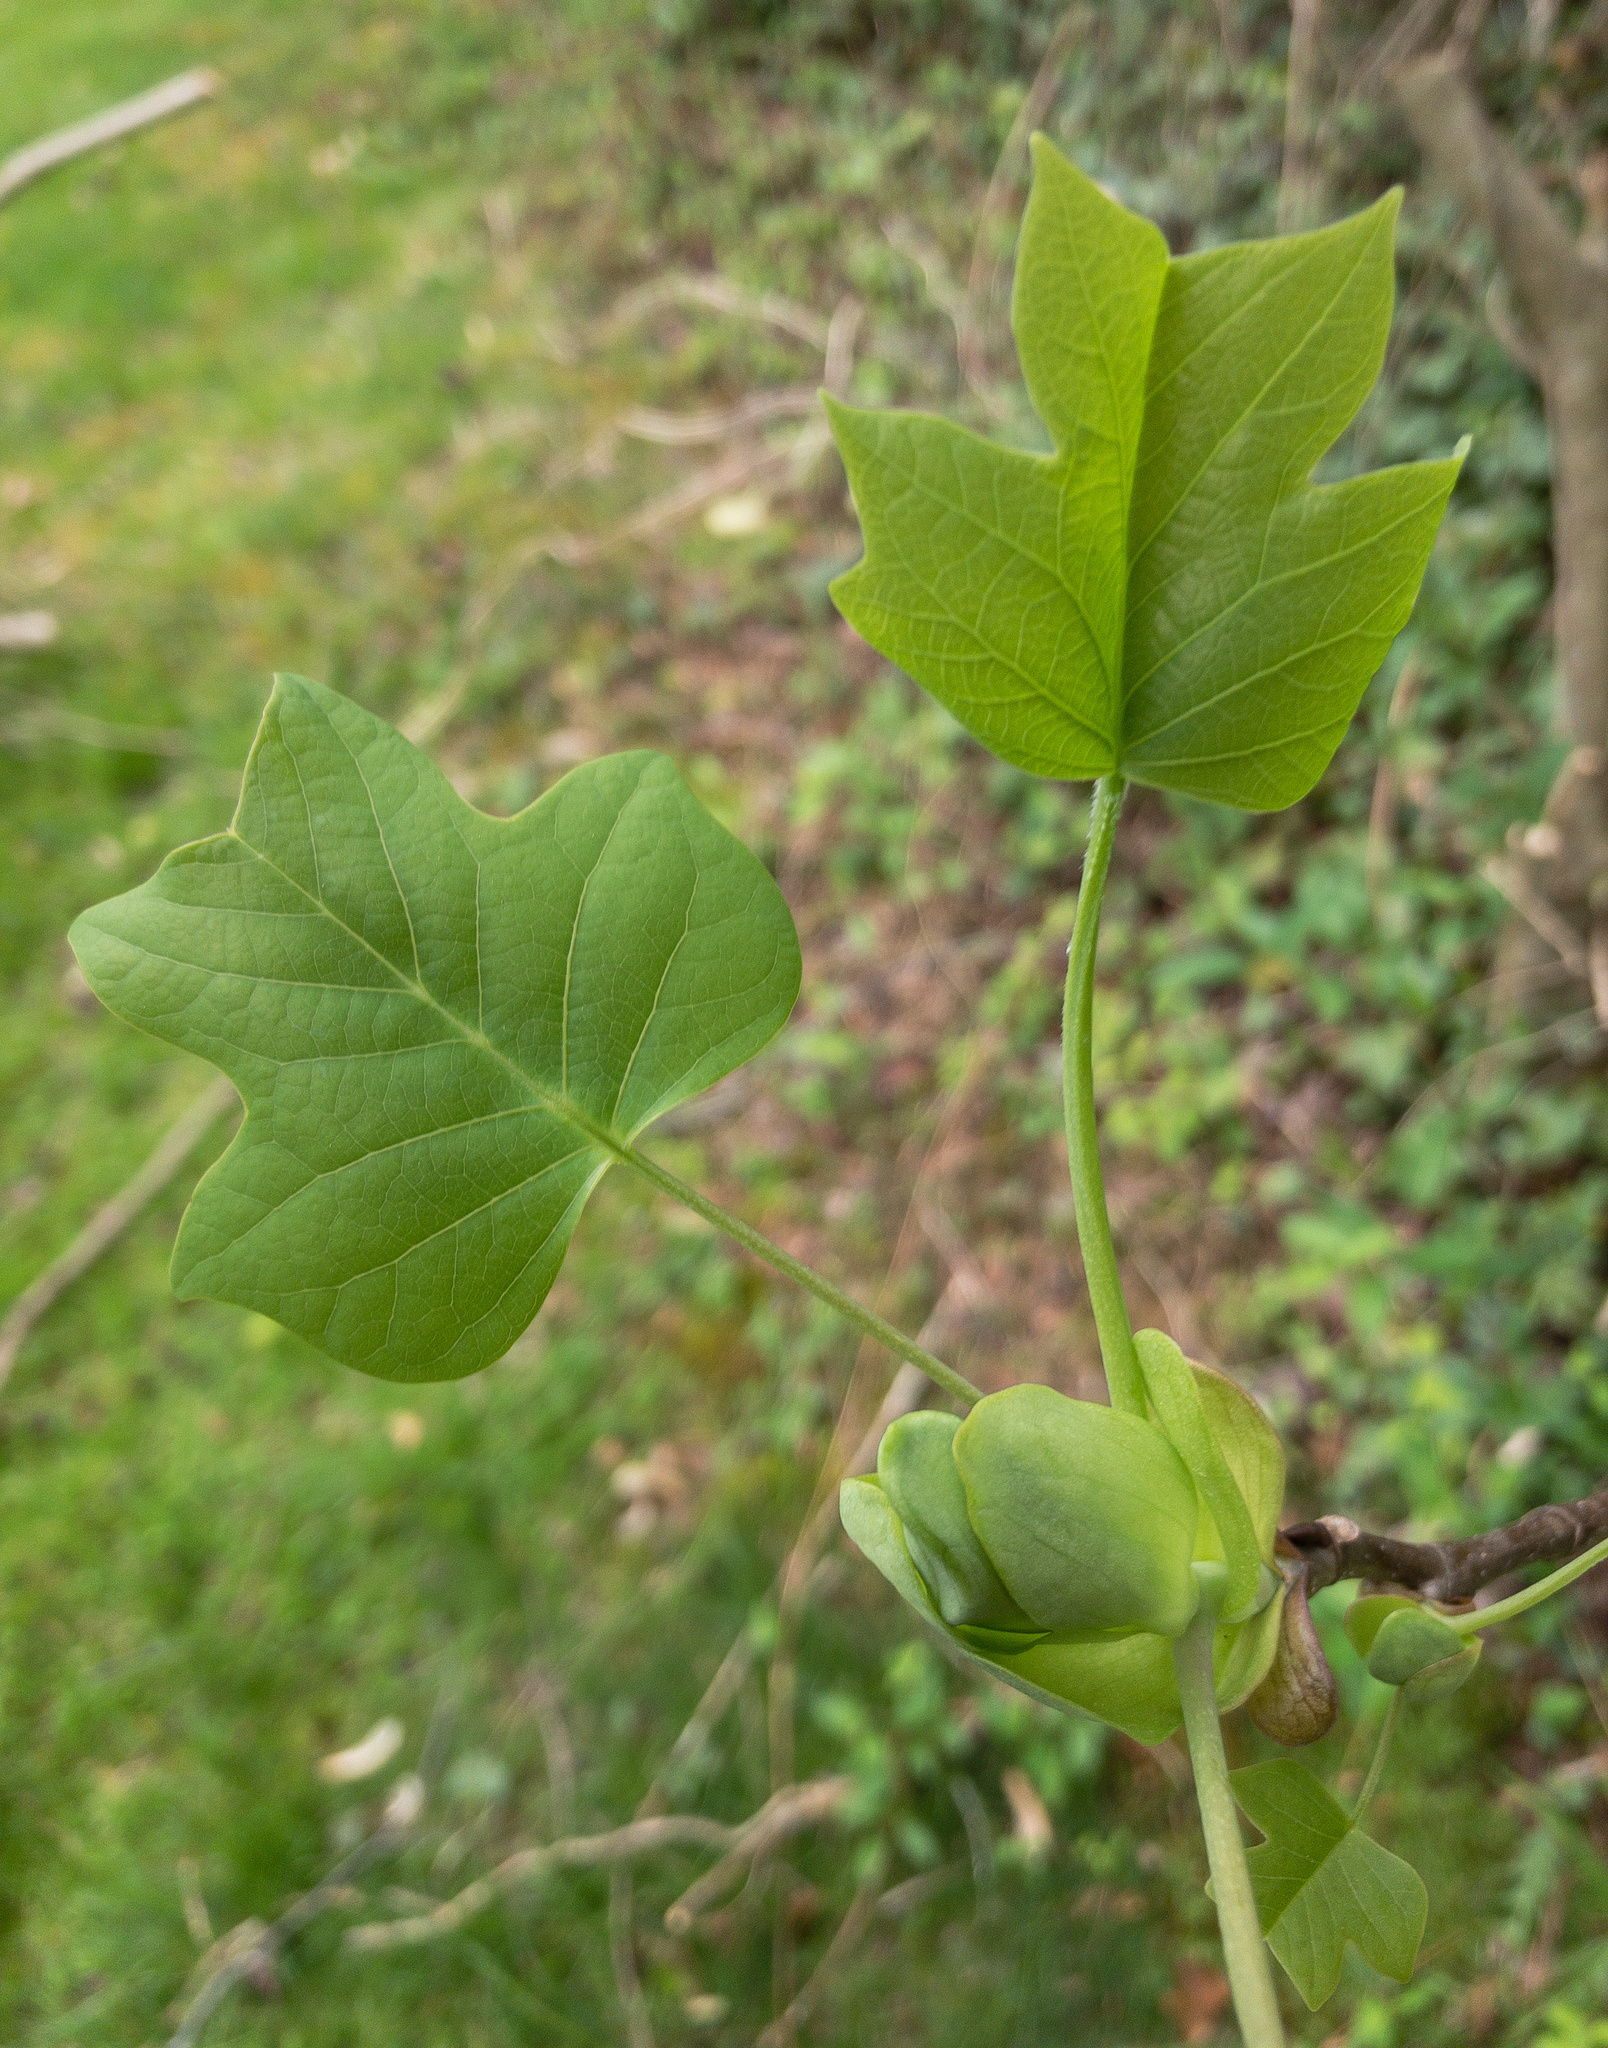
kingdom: Plantae
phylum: Tracheophyta
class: Magnoliopsida
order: Magnoliales
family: Magnoliaceae
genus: Liriodendron
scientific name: Liriodendron tulipifera
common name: Tulip tree
